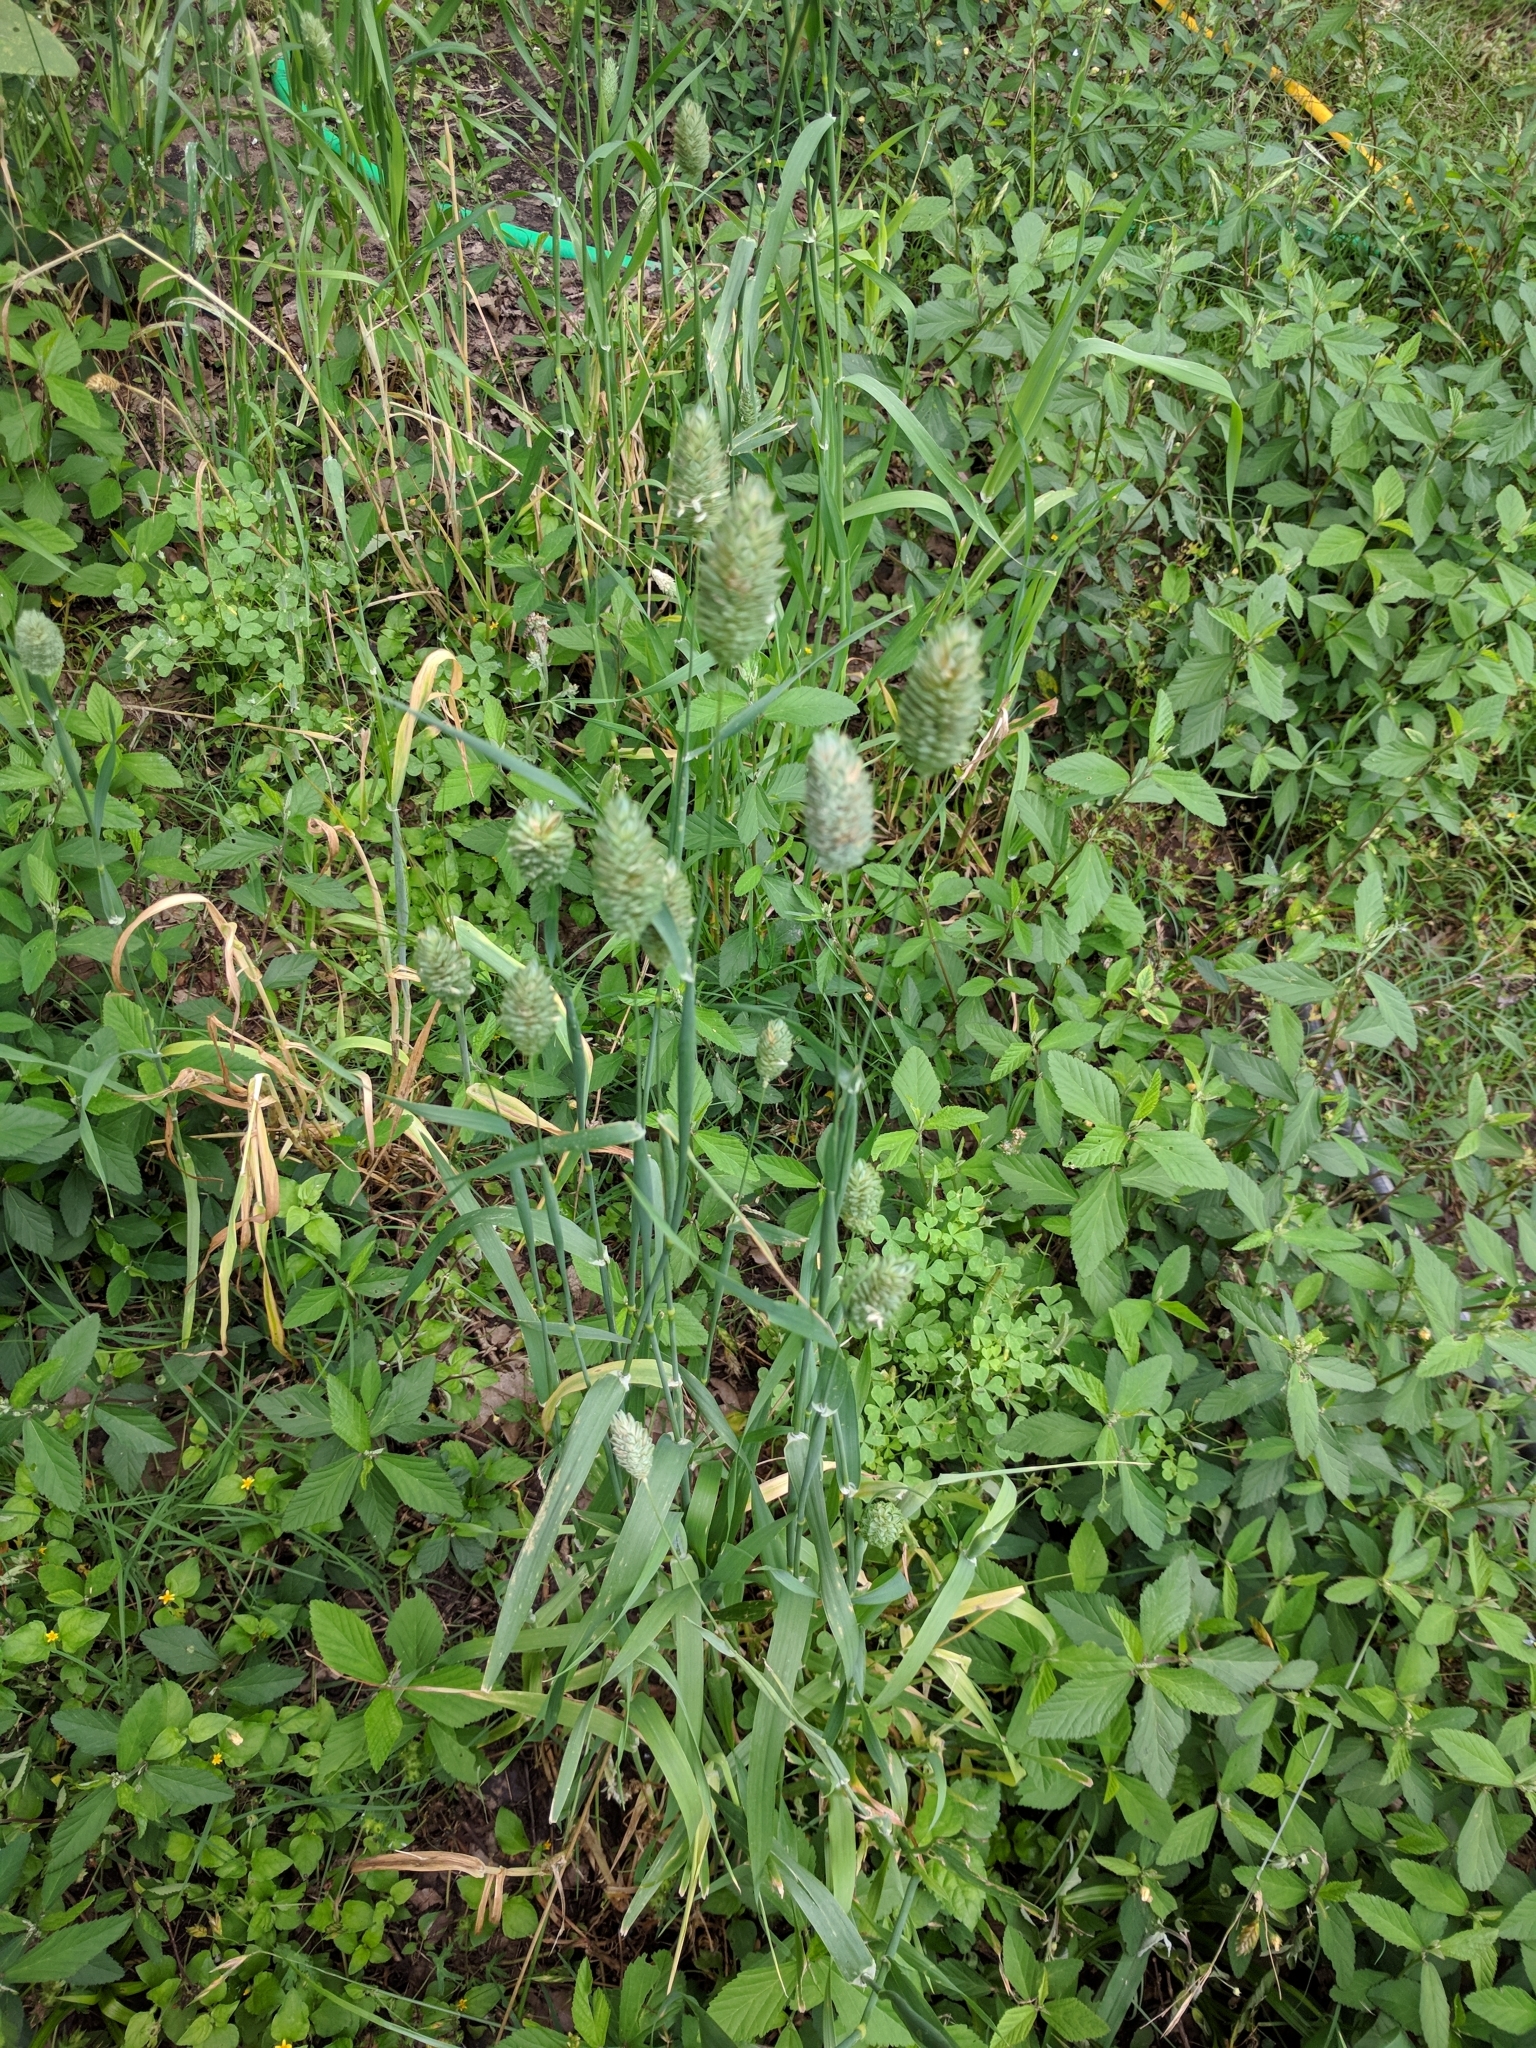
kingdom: Plantae
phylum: Tracheophyta
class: Liliopsida
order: Poales
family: Poaceae
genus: Phalaris
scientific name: Phalaris canariensis
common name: Annual canarygrass
